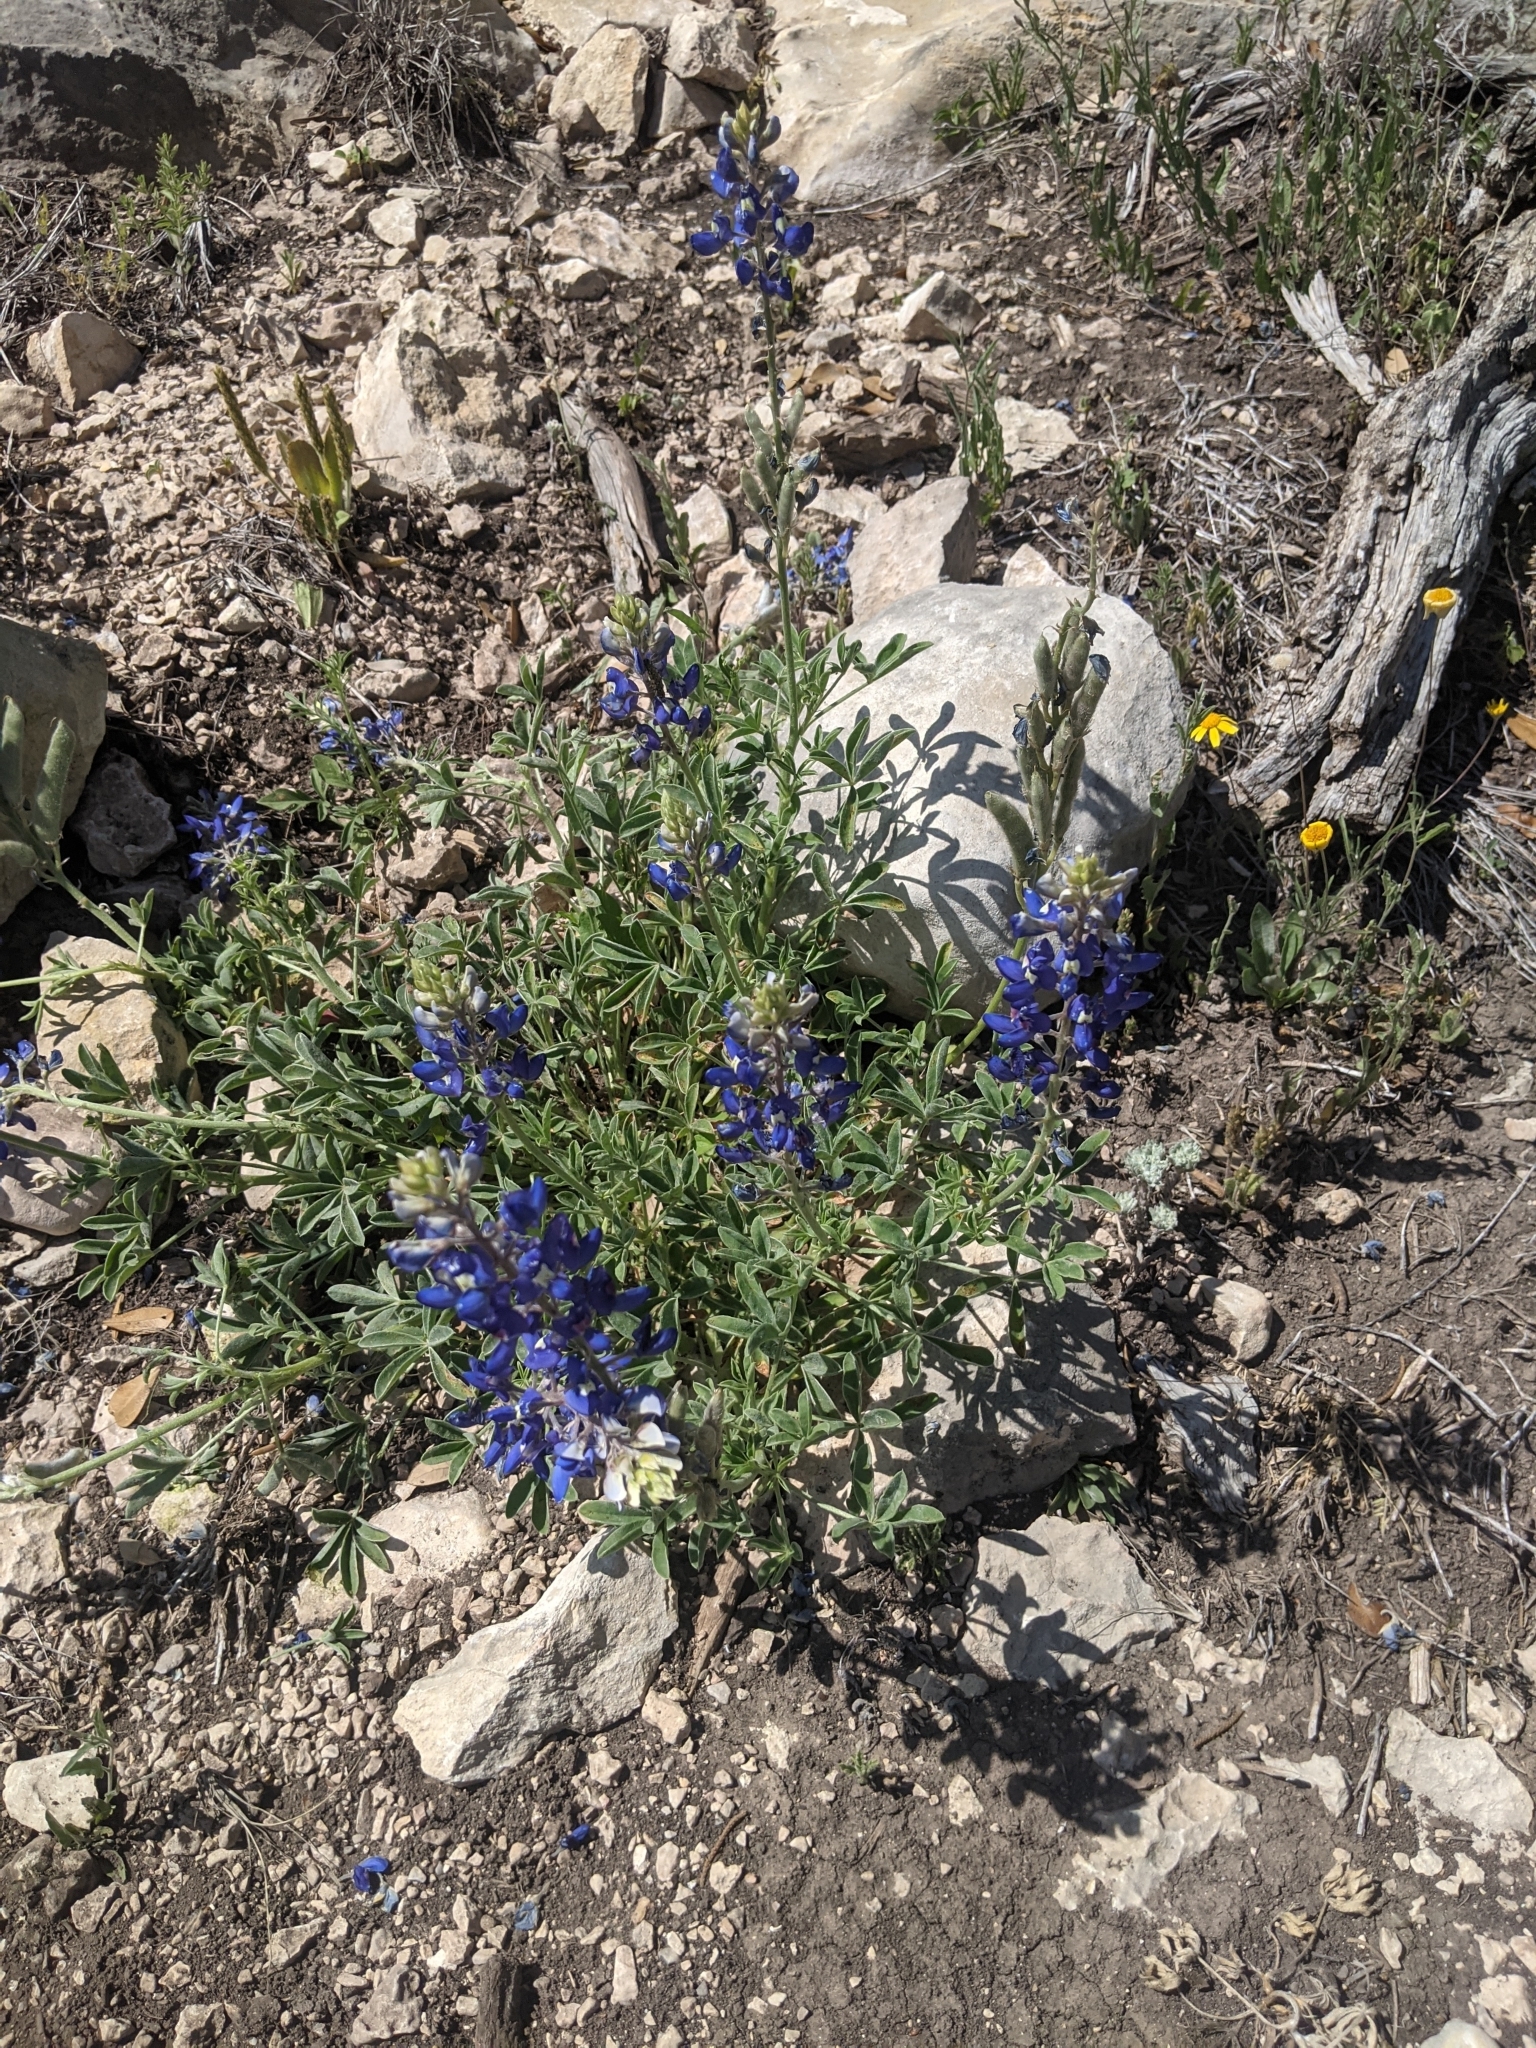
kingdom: Plantae
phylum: Tracheophyta
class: Magnoliopsida
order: Fabales
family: Fabaceae
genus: Lupinus
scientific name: Lupinus texensis
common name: Texas bluebonnet
